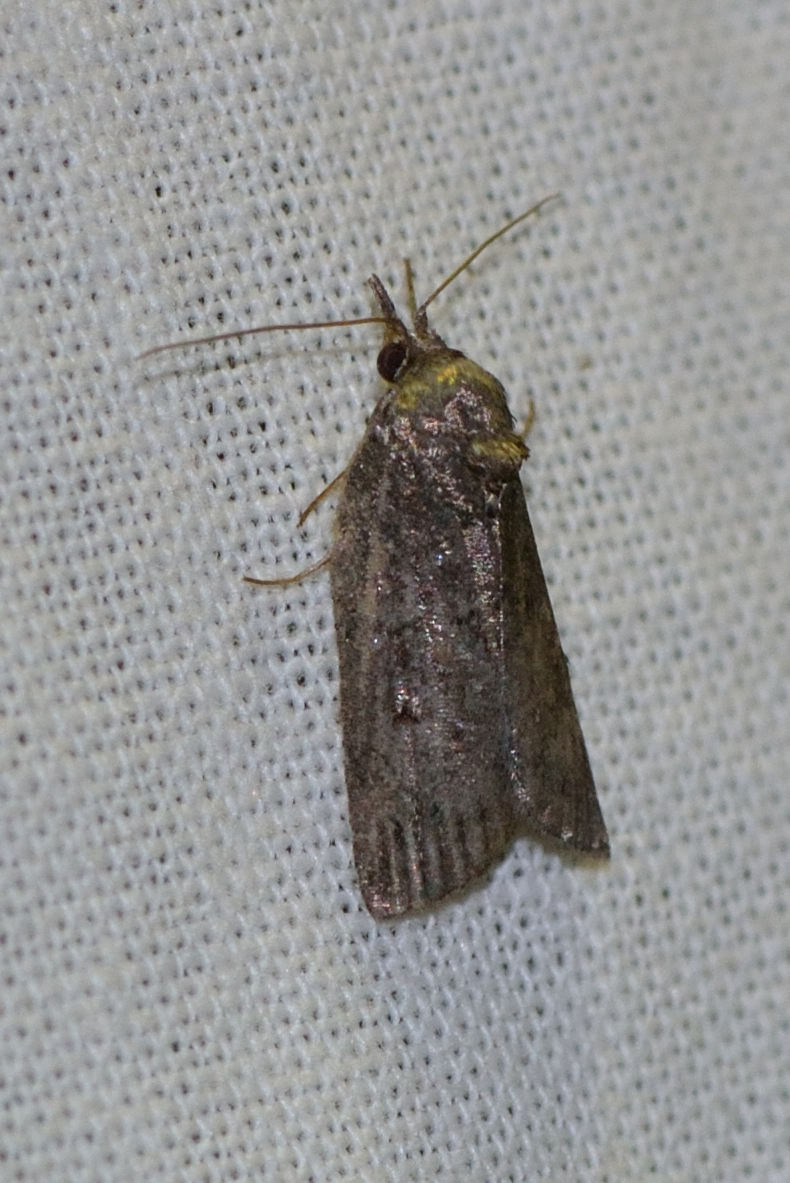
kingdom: Animalia
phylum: Arthropoda
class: Insecta
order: Lepidoptera
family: Nolidae
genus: Nycteola
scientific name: Nycteola revayana
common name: Oak nycteoline
